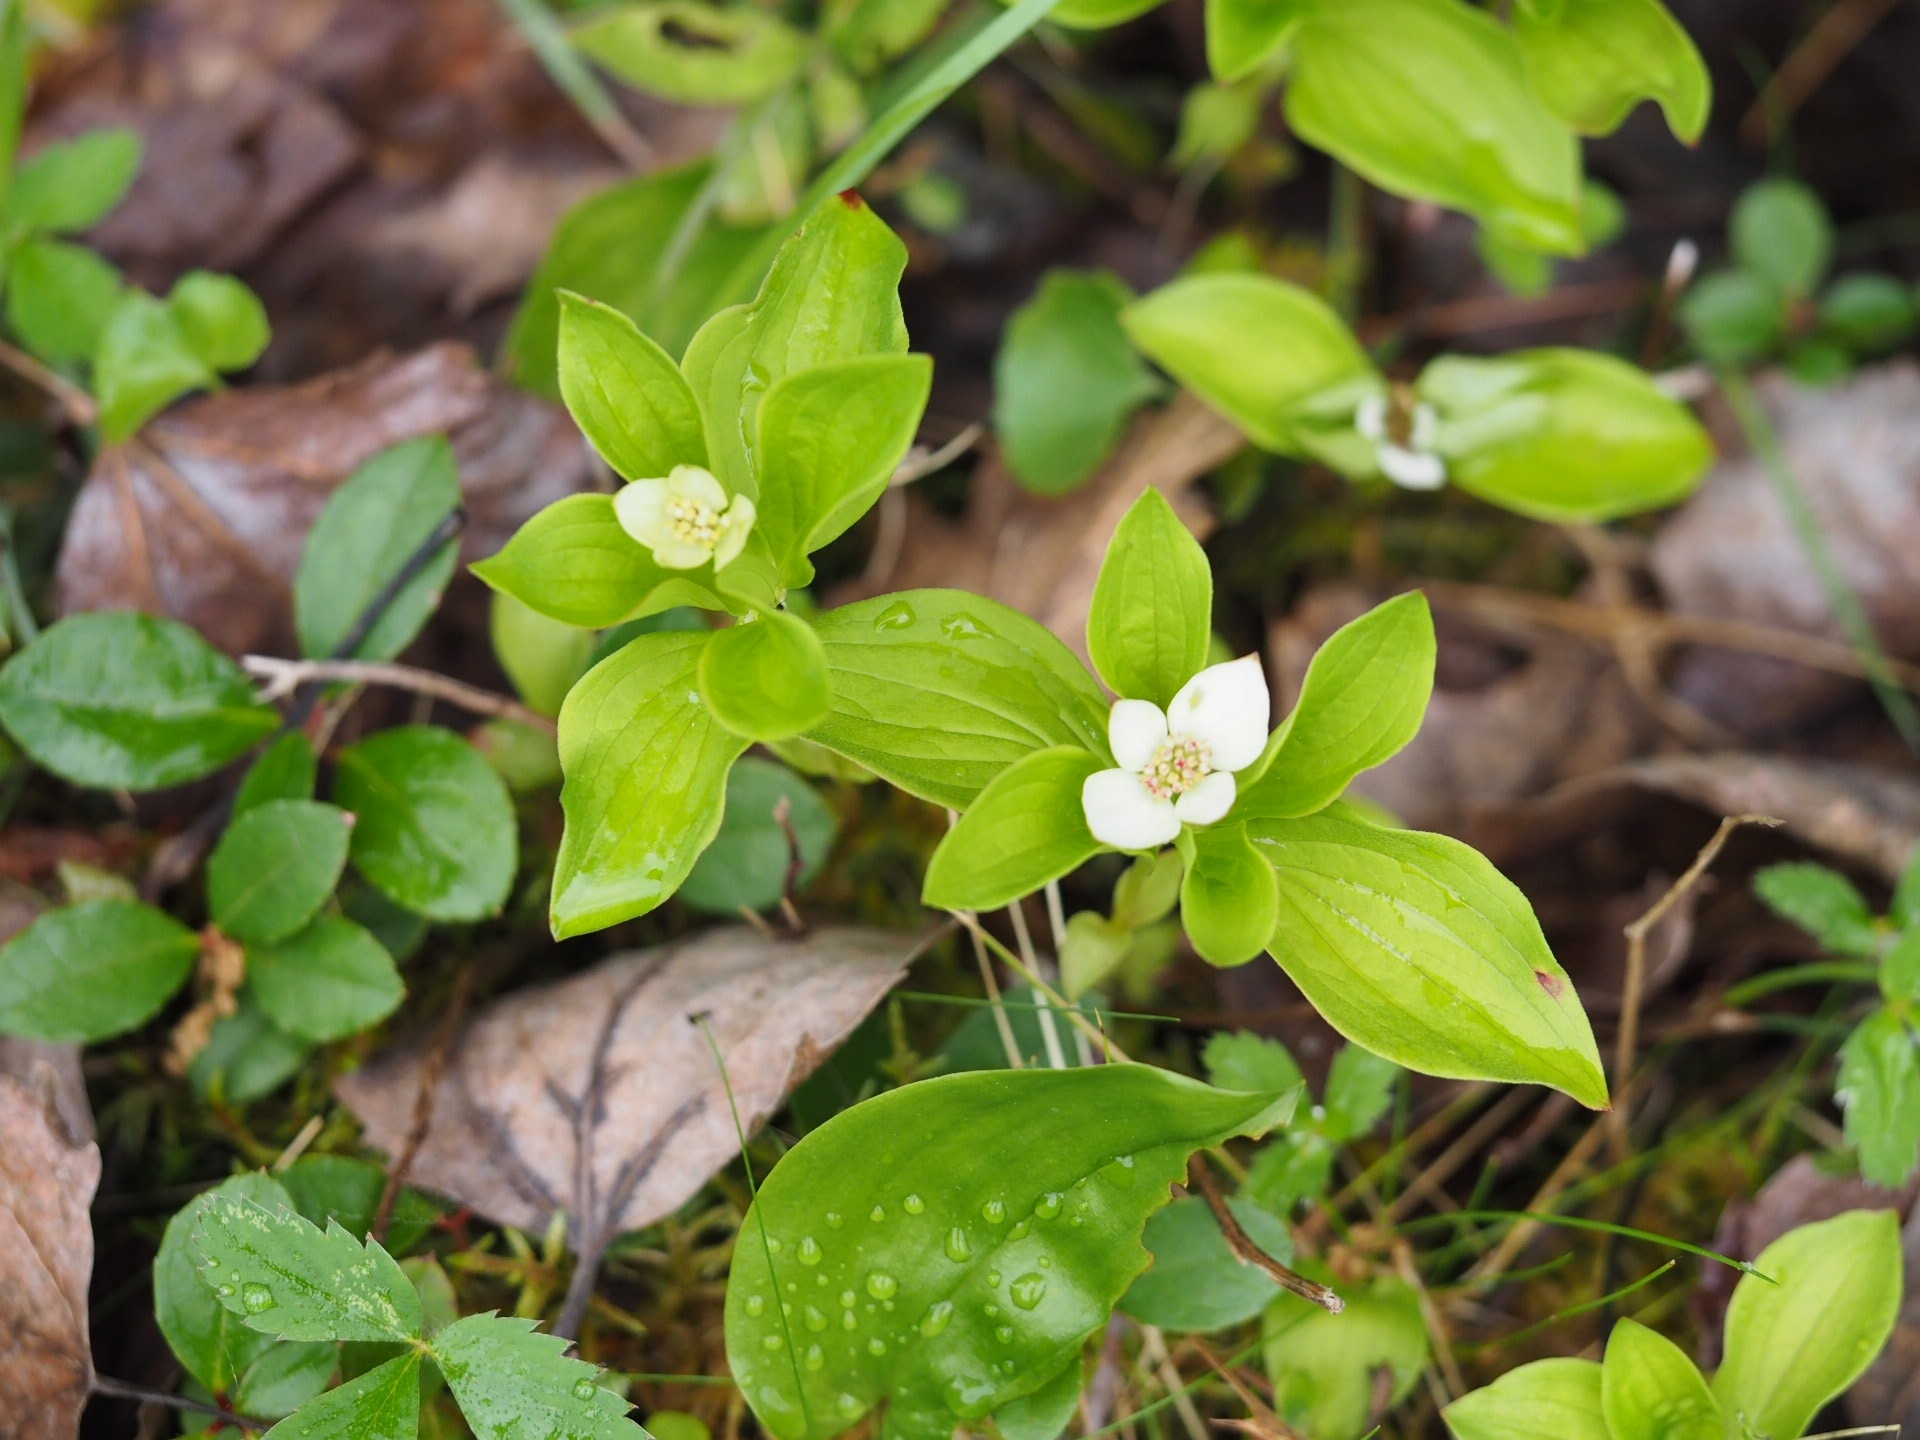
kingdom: Plantae
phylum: Tracheophyta
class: Magnoliopsida
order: Cornales
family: Cornaceae
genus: Cornus
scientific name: Cornus canadensis
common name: Creeping dogwood
